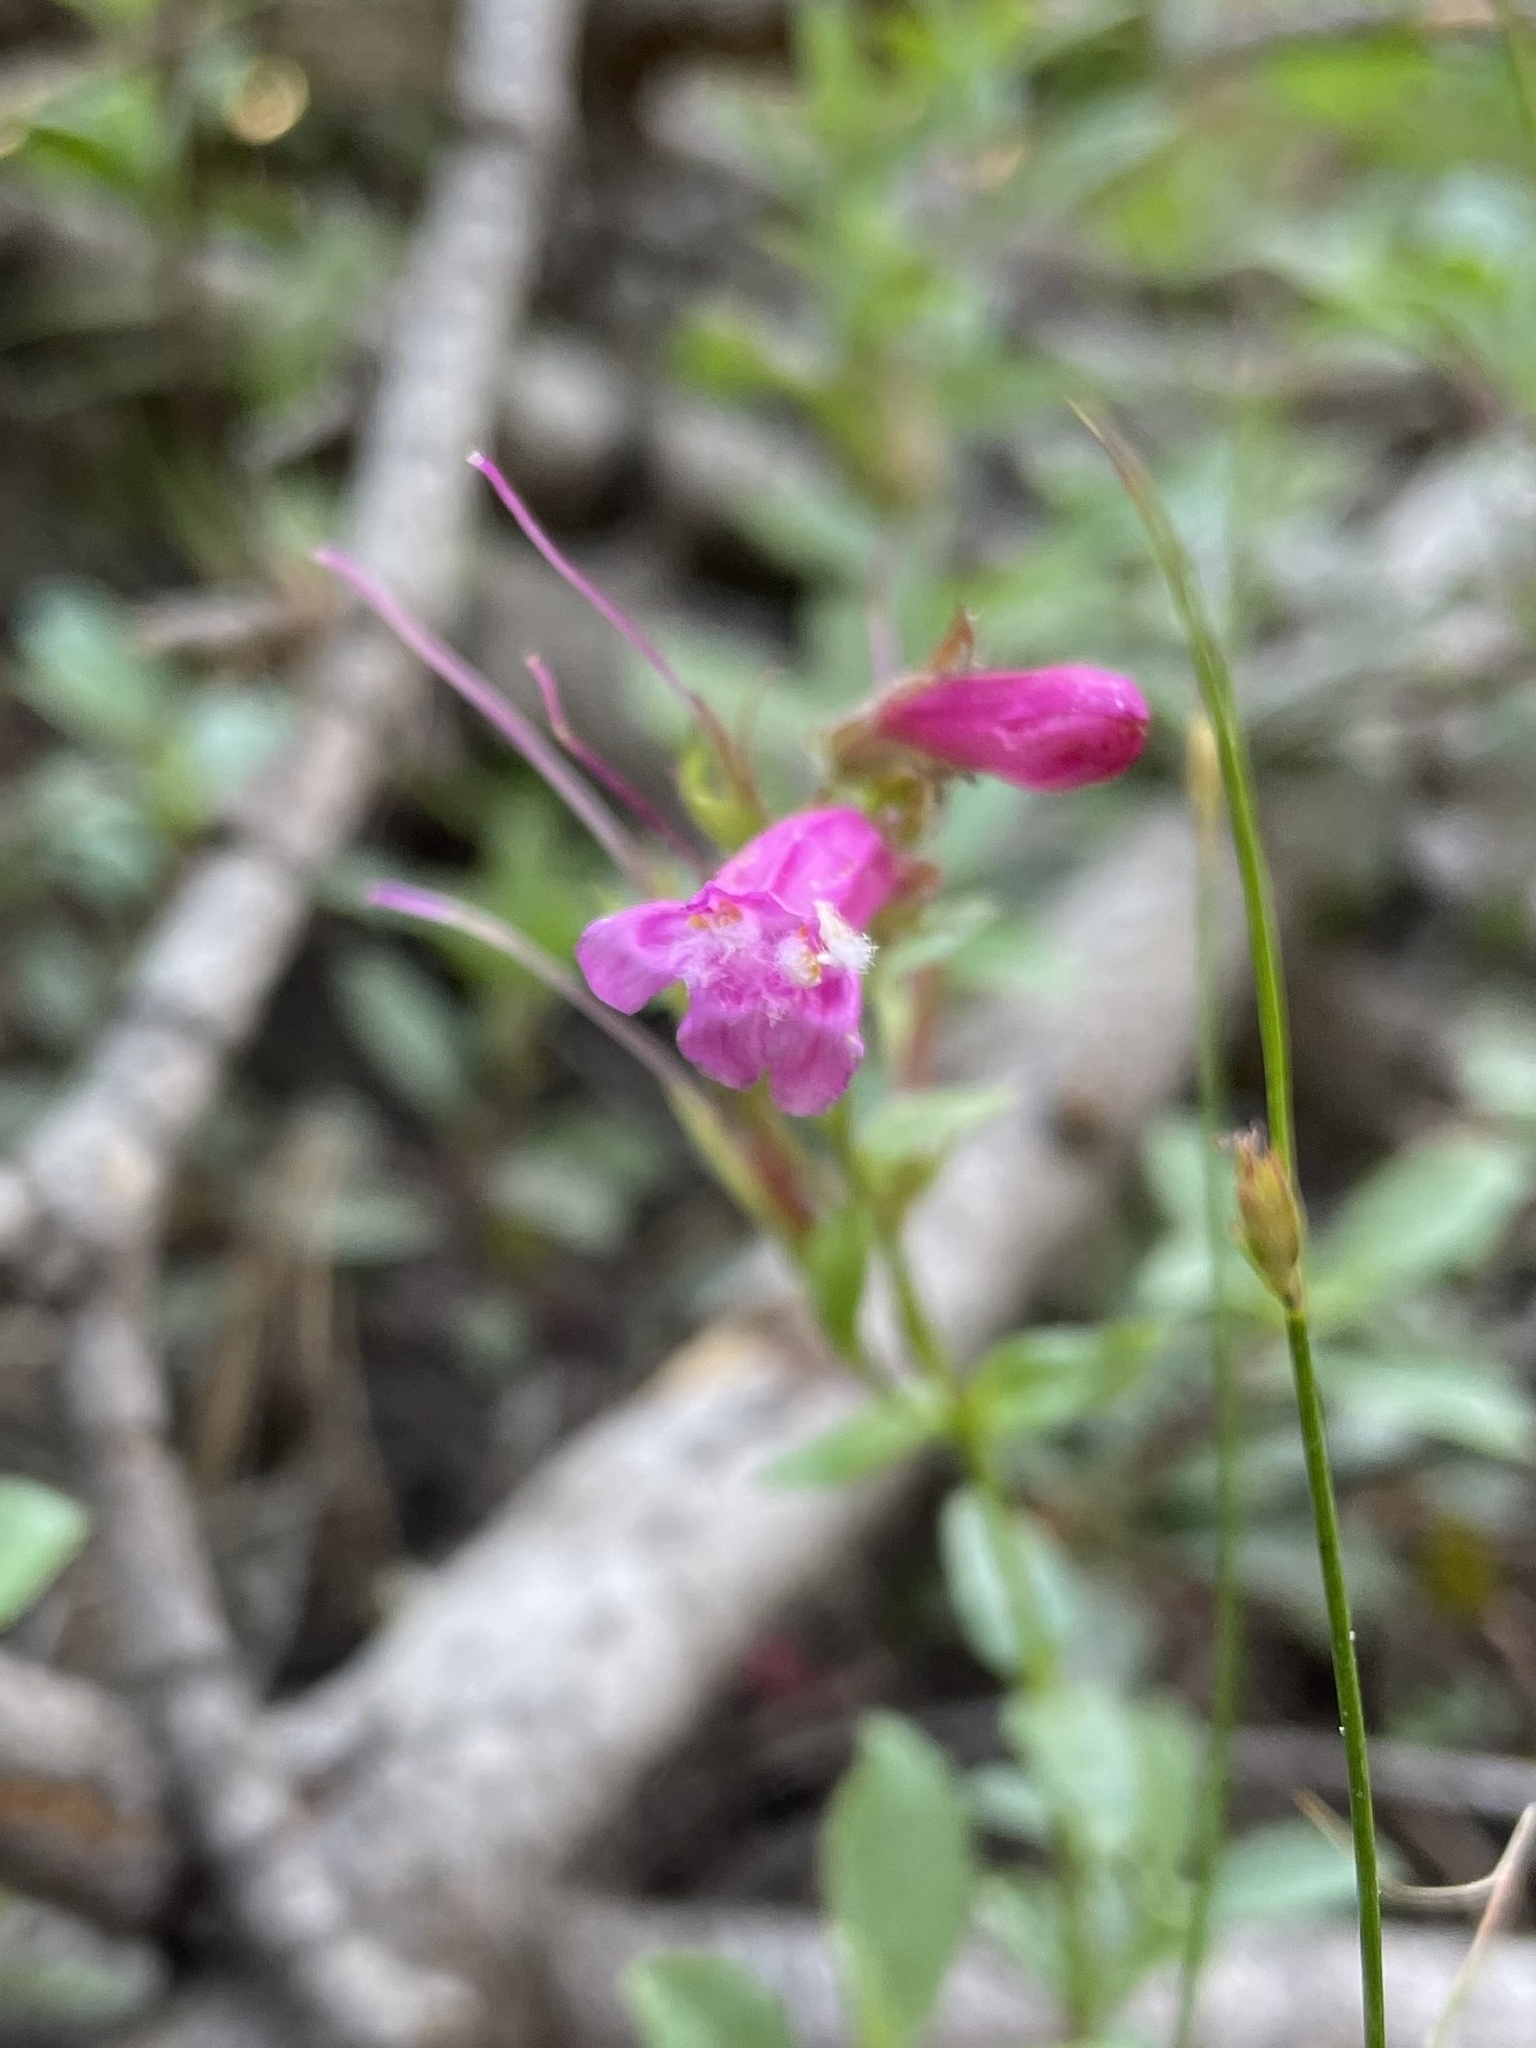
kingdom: Plantae
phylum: Tracheophyta
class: Magnoliopsida
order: Lamiales
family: Plantaginaceae
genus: Penstemon
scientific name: Penstemon newberryi
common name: Mountain-pride
